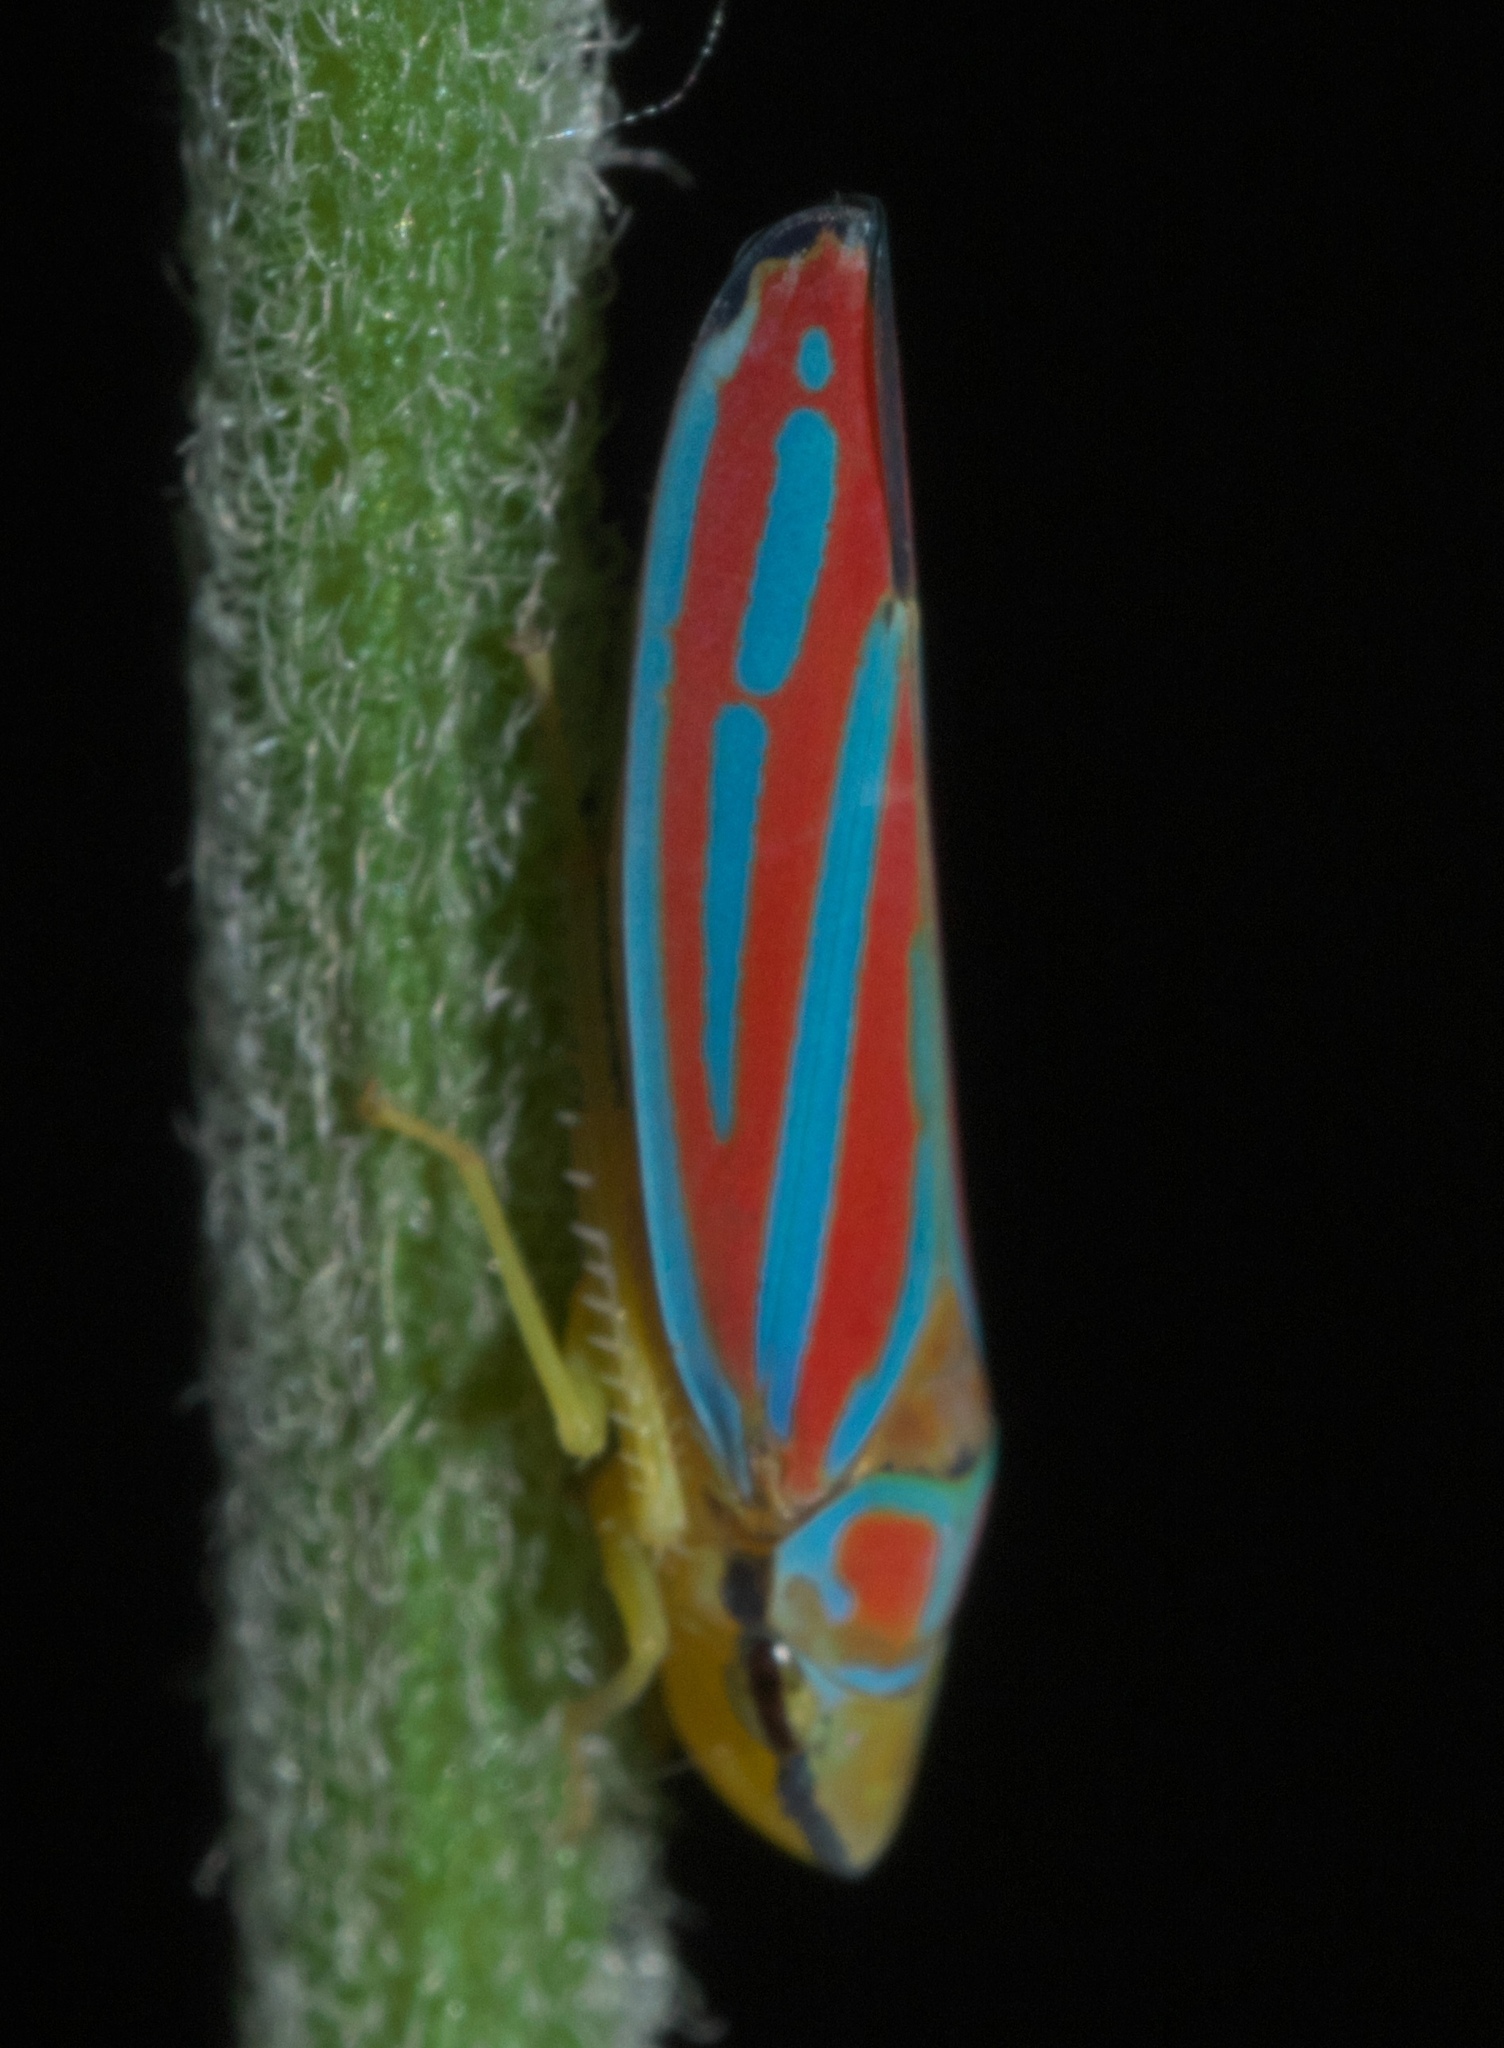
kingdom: Animalia
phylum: Arthropoda
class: Insecta
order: Hemiptera
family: Cicadellidae
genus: Graphocephala
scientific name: Graphocephala coccinea
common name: Candy-striped leafhopper
